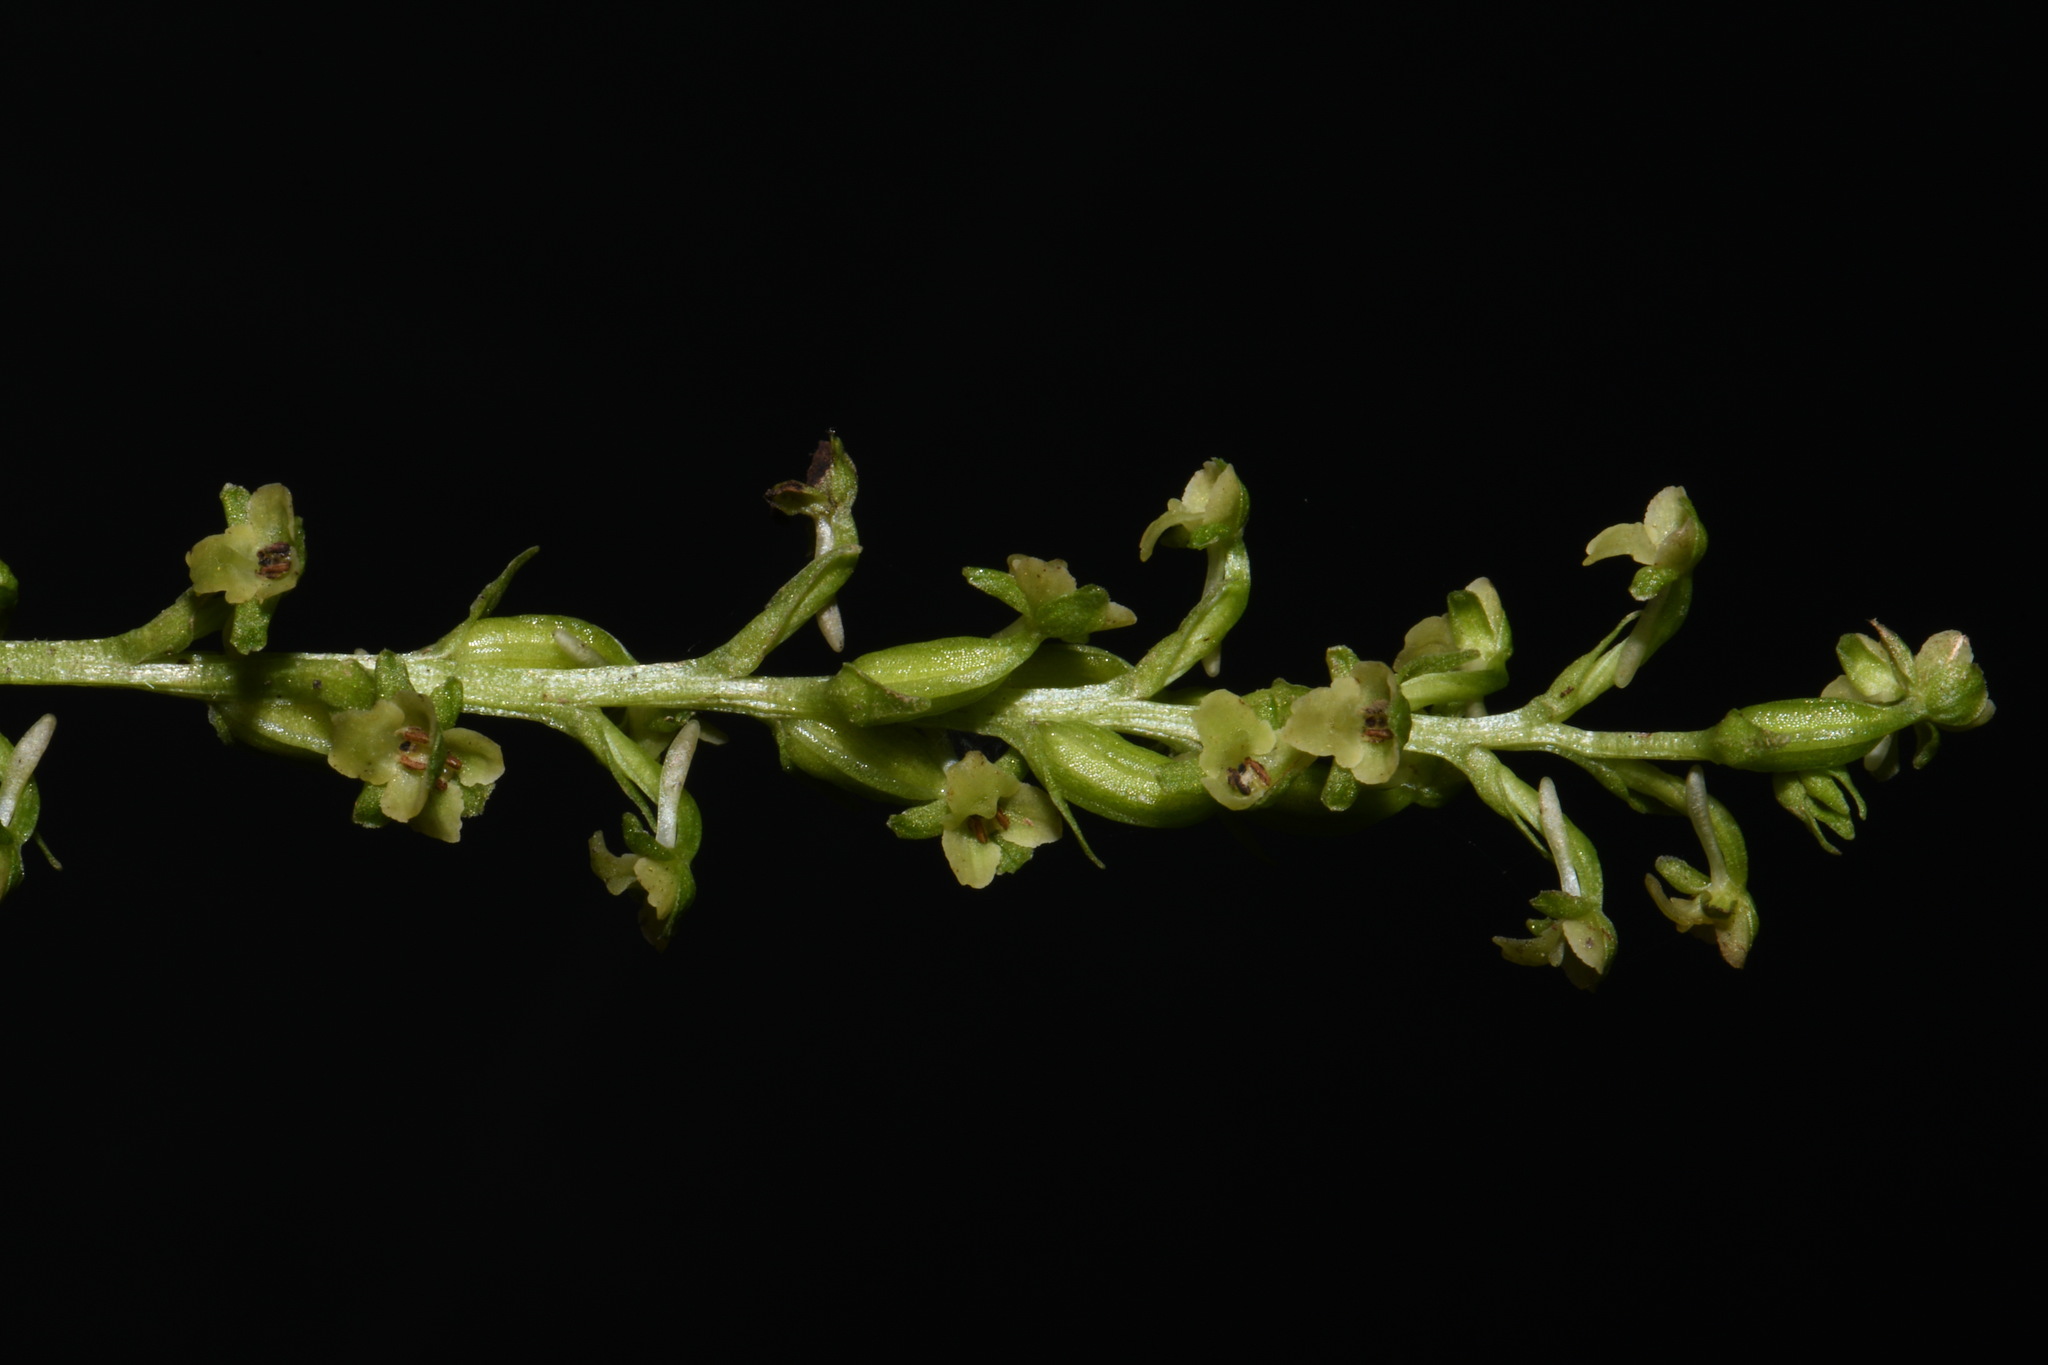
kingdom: Plantae
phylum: Tracheophyta
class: Liliopsida
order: Asparagales
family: Orchidaceae
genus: Platanthera
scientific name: Platanthera flava
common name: Gypsy-spikes
